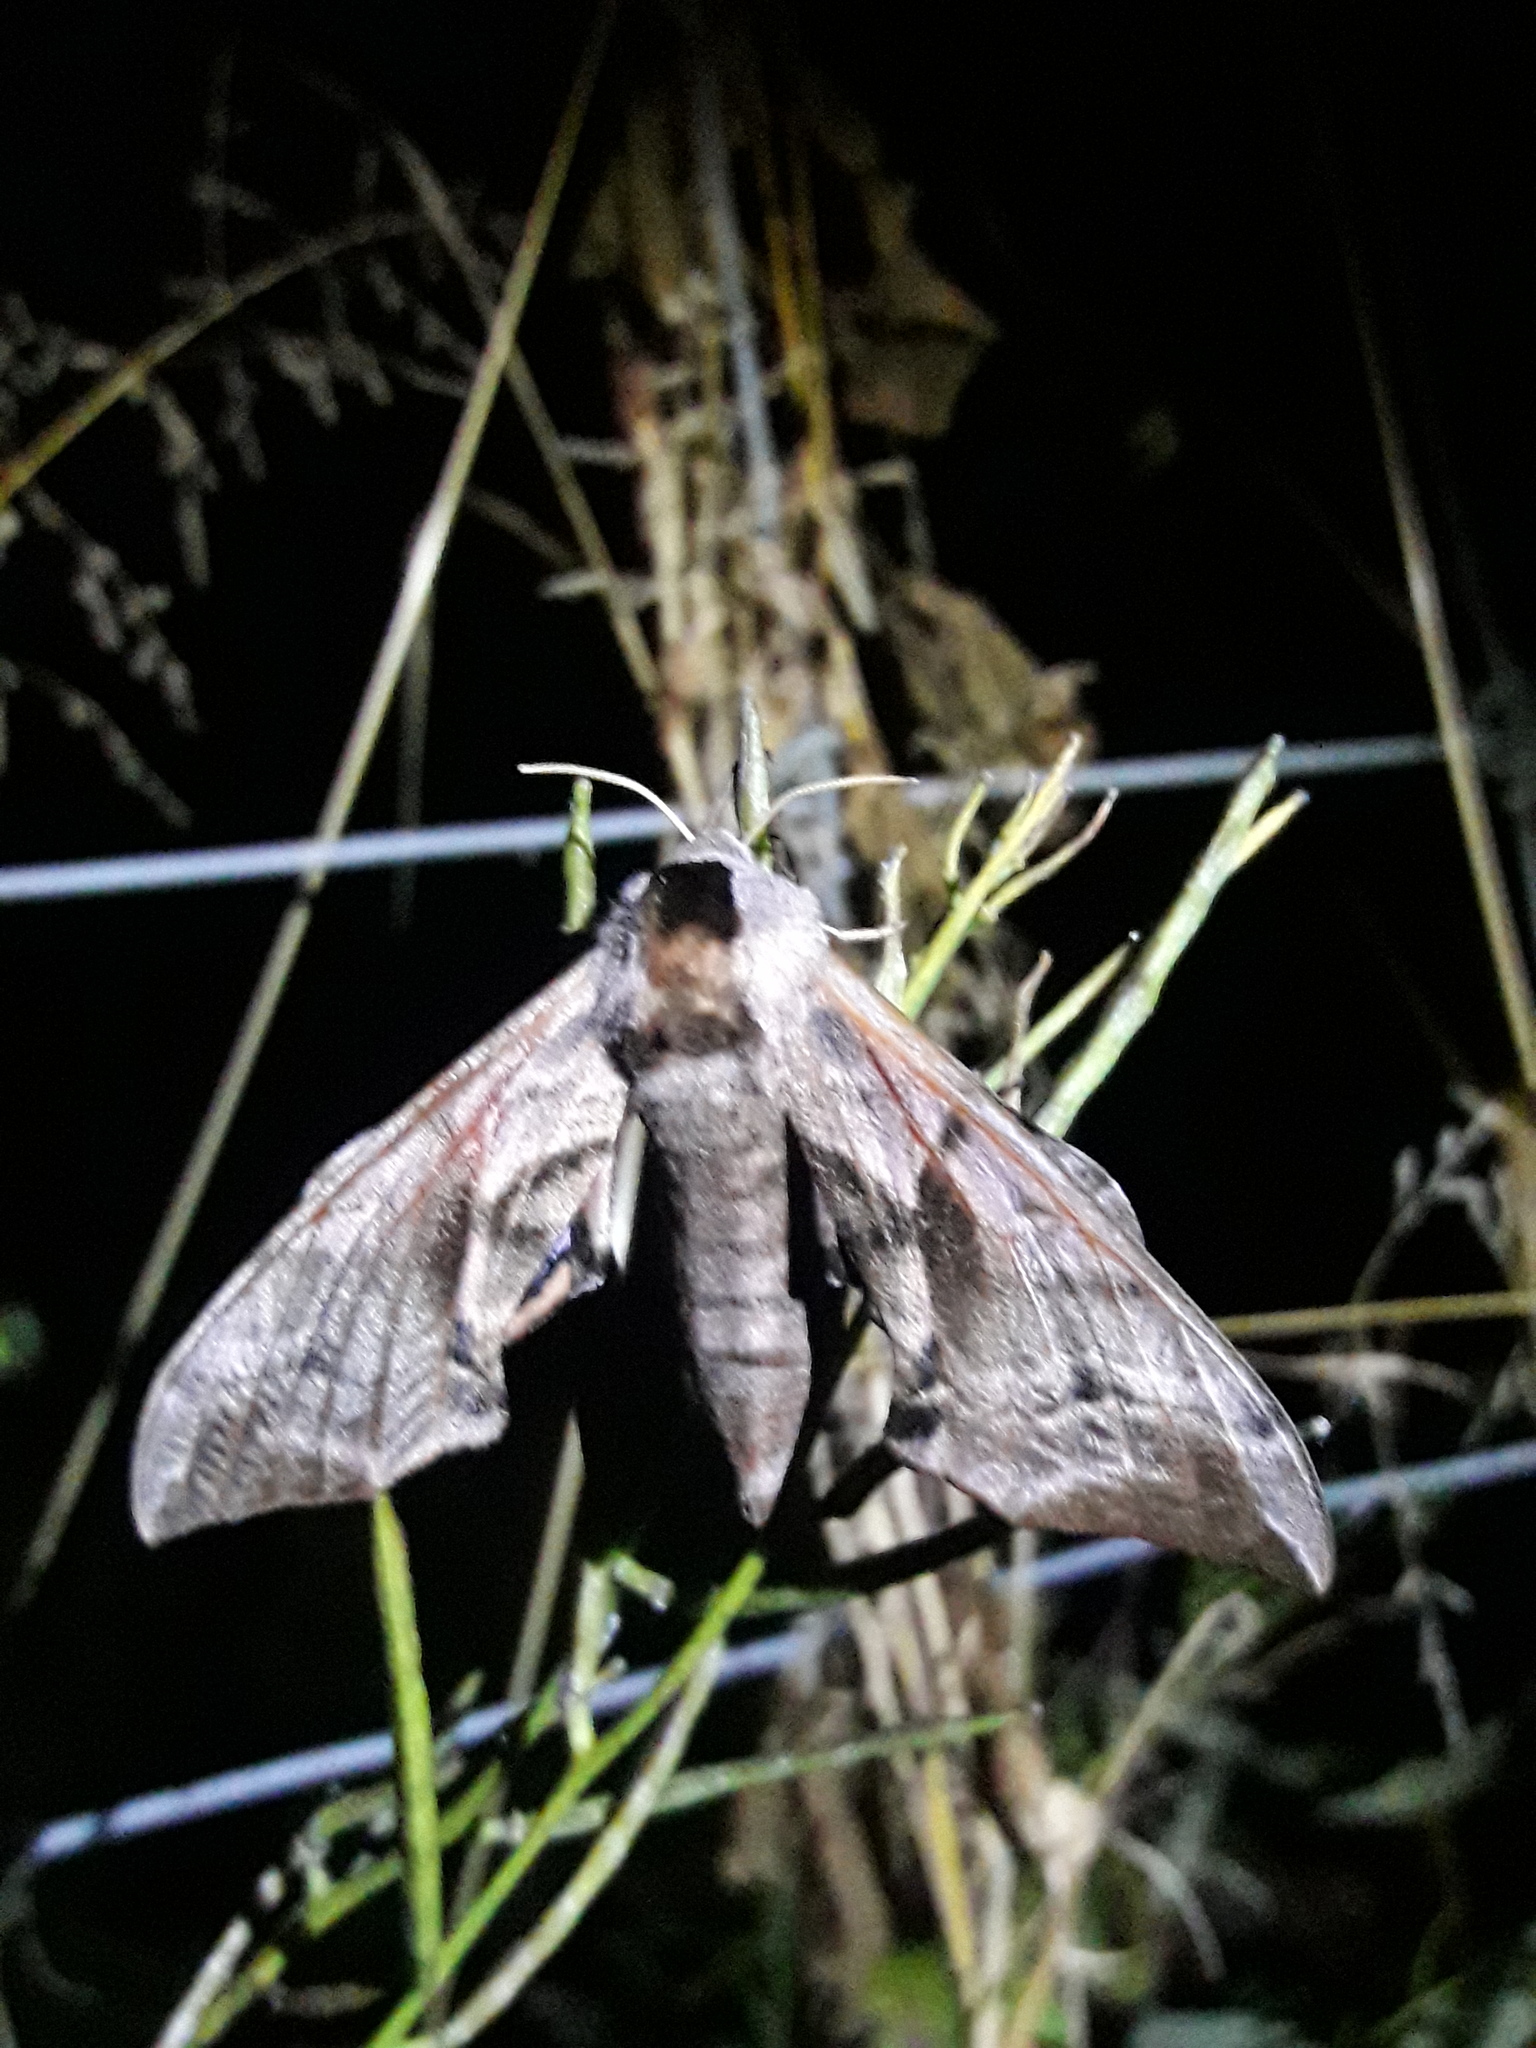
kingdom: Animalia
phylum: Arthropoda
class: Insecta
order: Lepidoptera
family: Sphingidae
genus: Smerinthus
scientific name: Smerinthus ocellata
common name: Eyed hawk-moth
